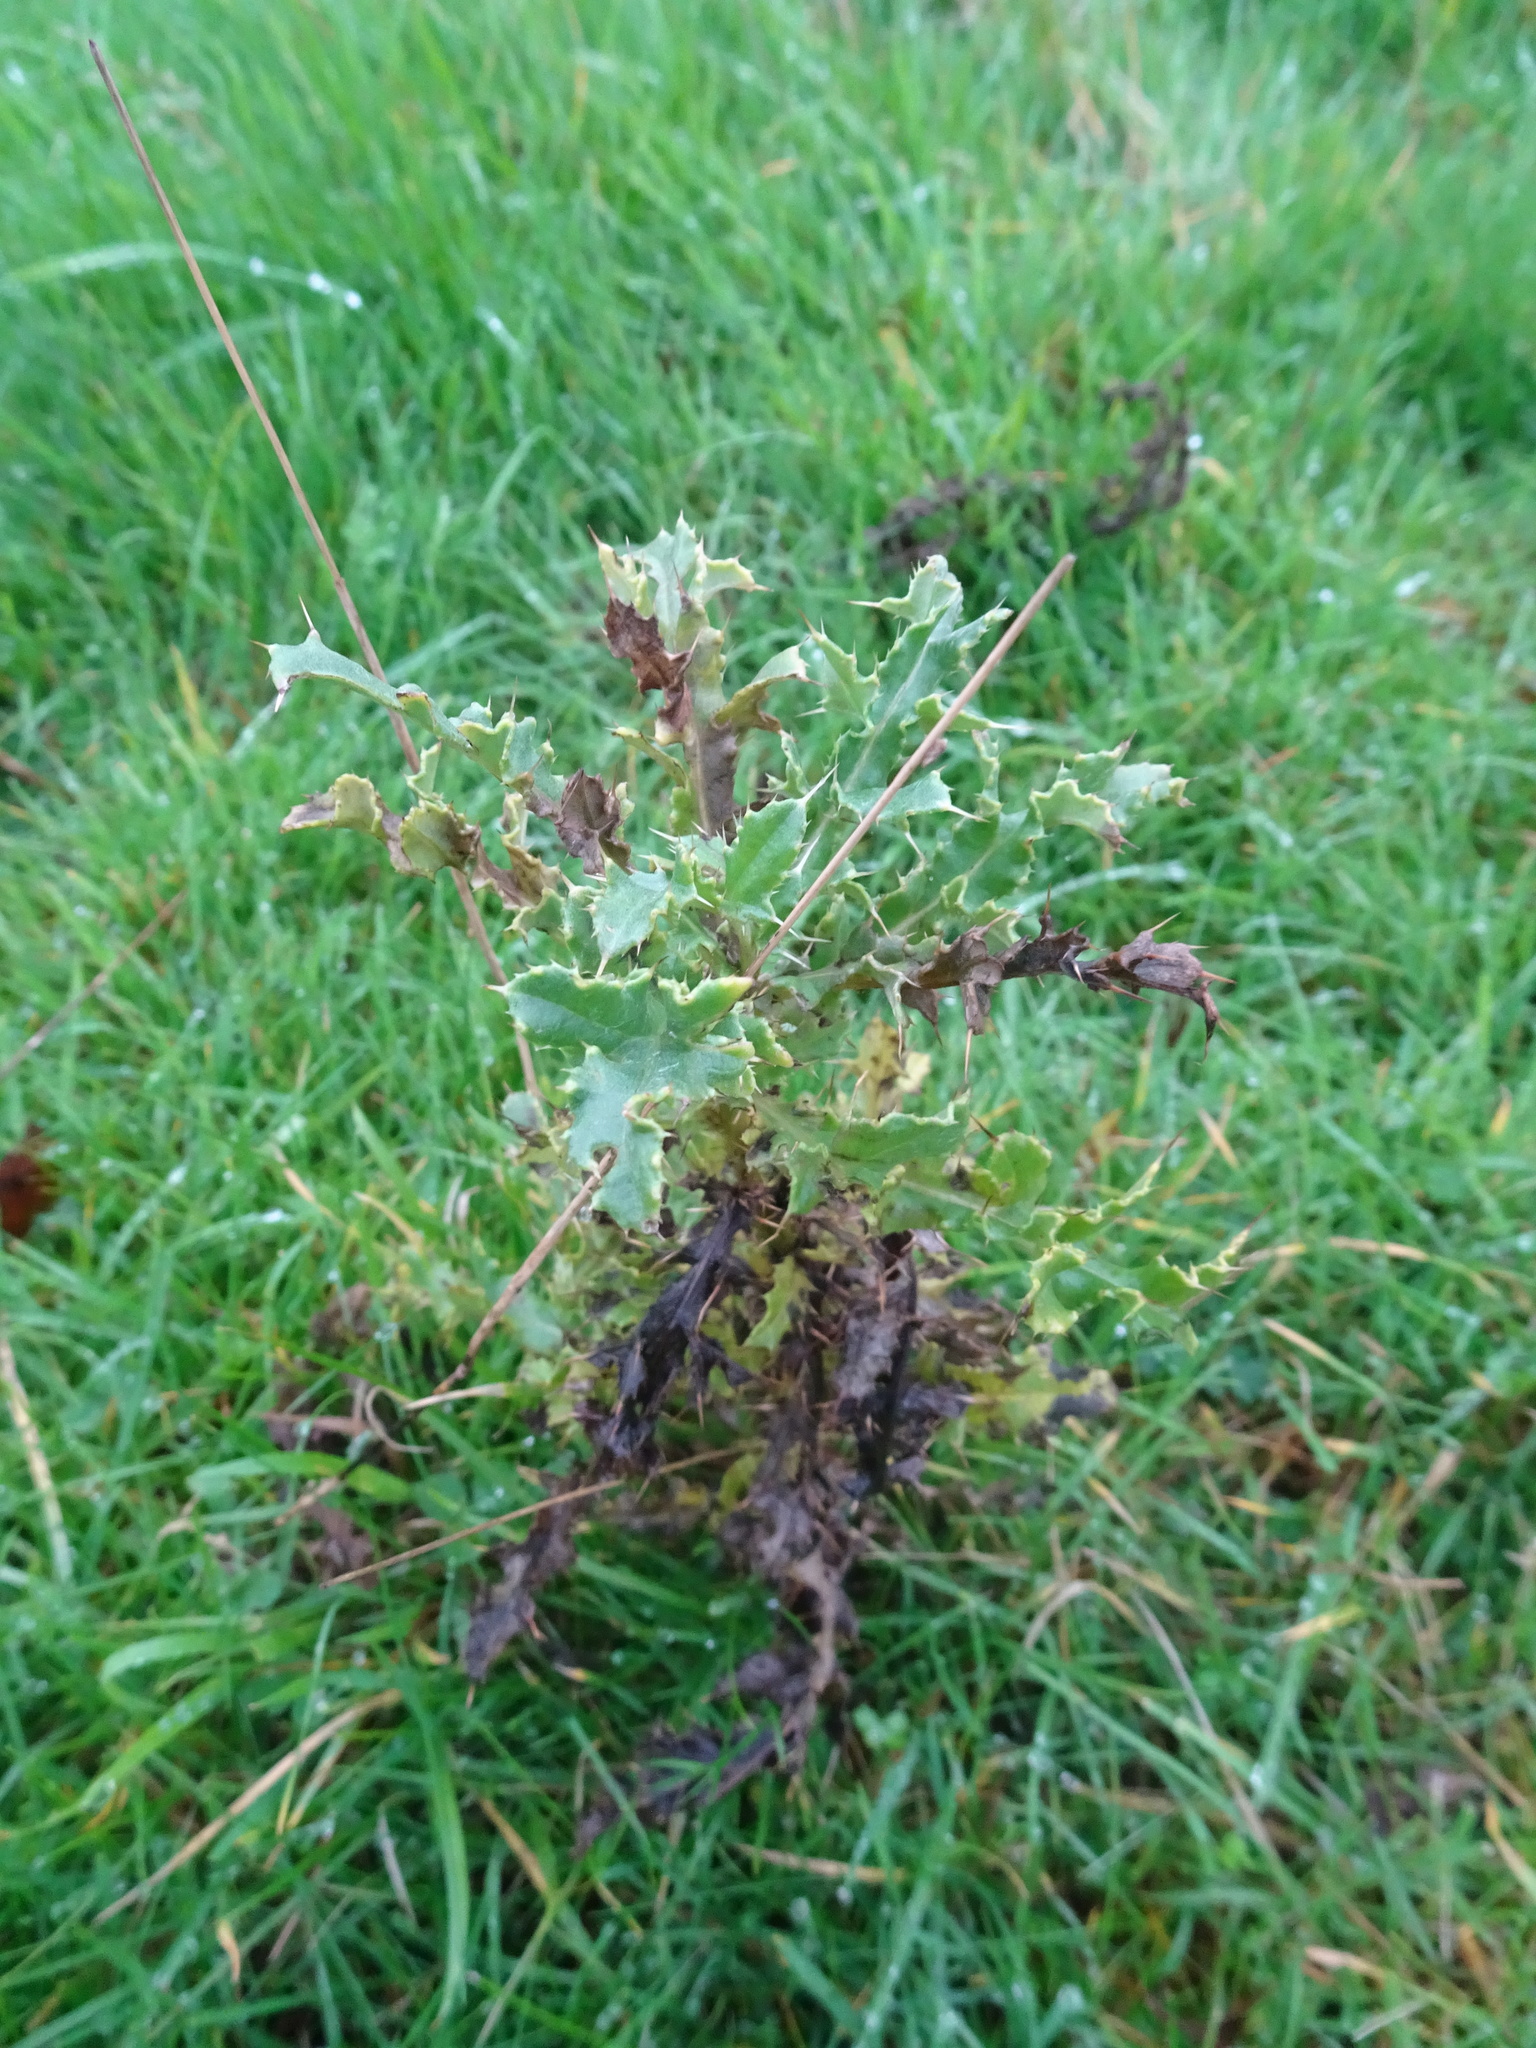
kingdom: Plantae
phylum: Tracheophyta
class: Magnoliopsida
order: Asterales
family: Asteraceae
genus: Cirsium
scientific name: Cirsium arvense
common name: Creeping thistle
